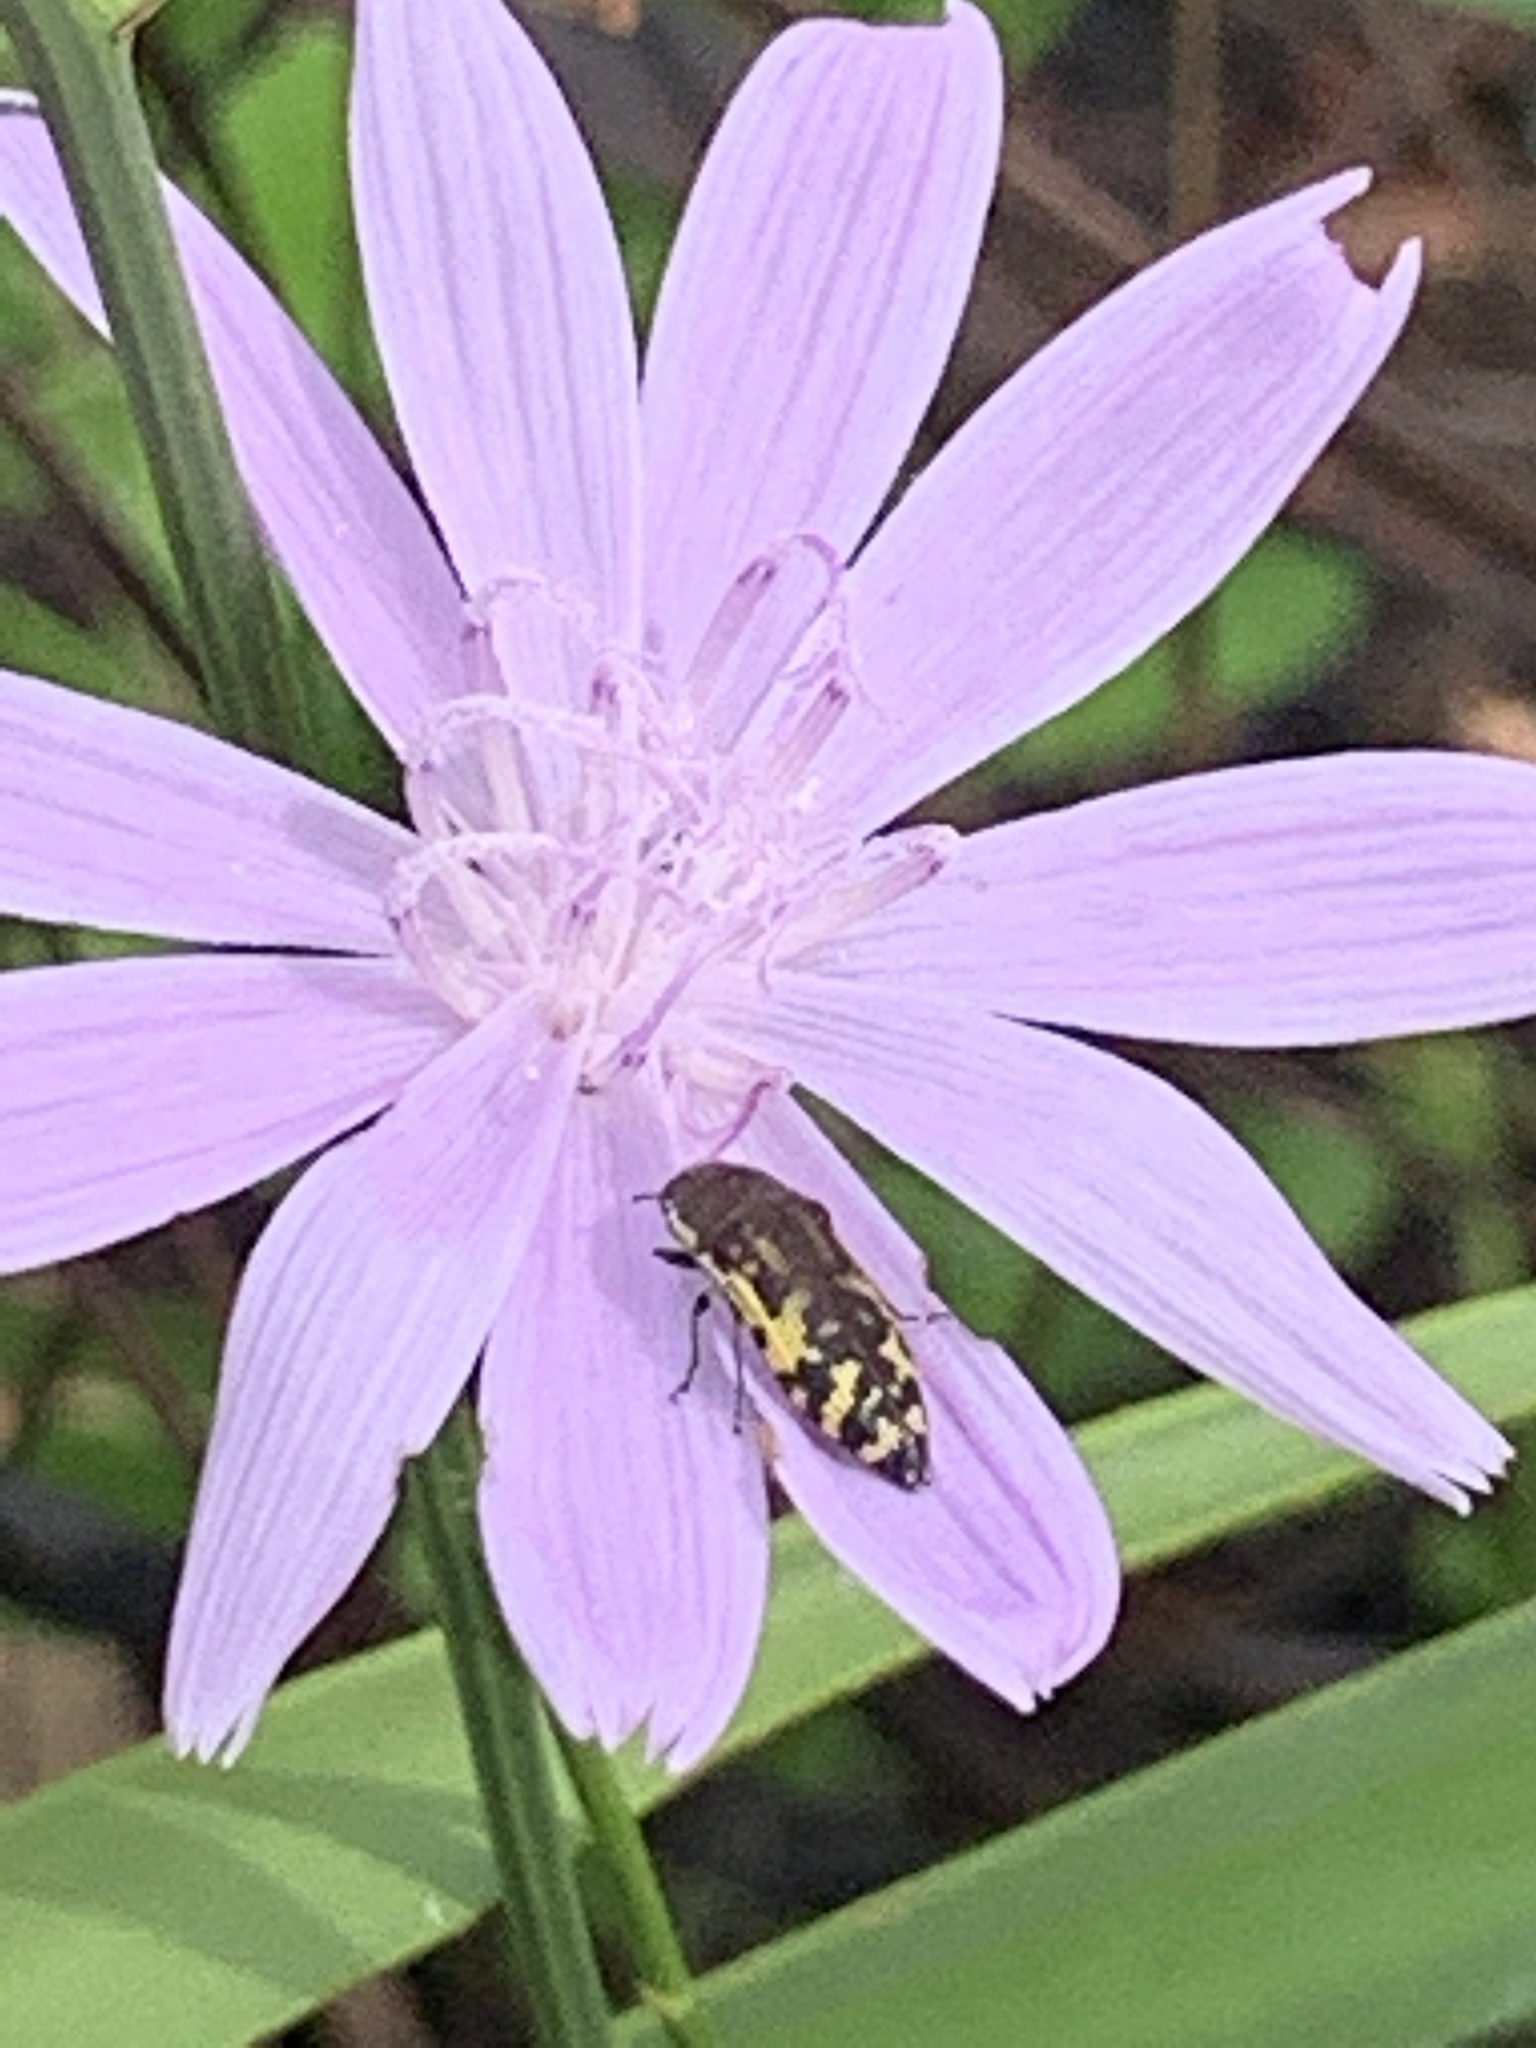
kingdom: Animalia
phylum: Arthropoda
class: Insecta
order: Coleoptera
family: Buprestidae
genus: Acmaeodera
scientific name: Acmaeodera pulchella
